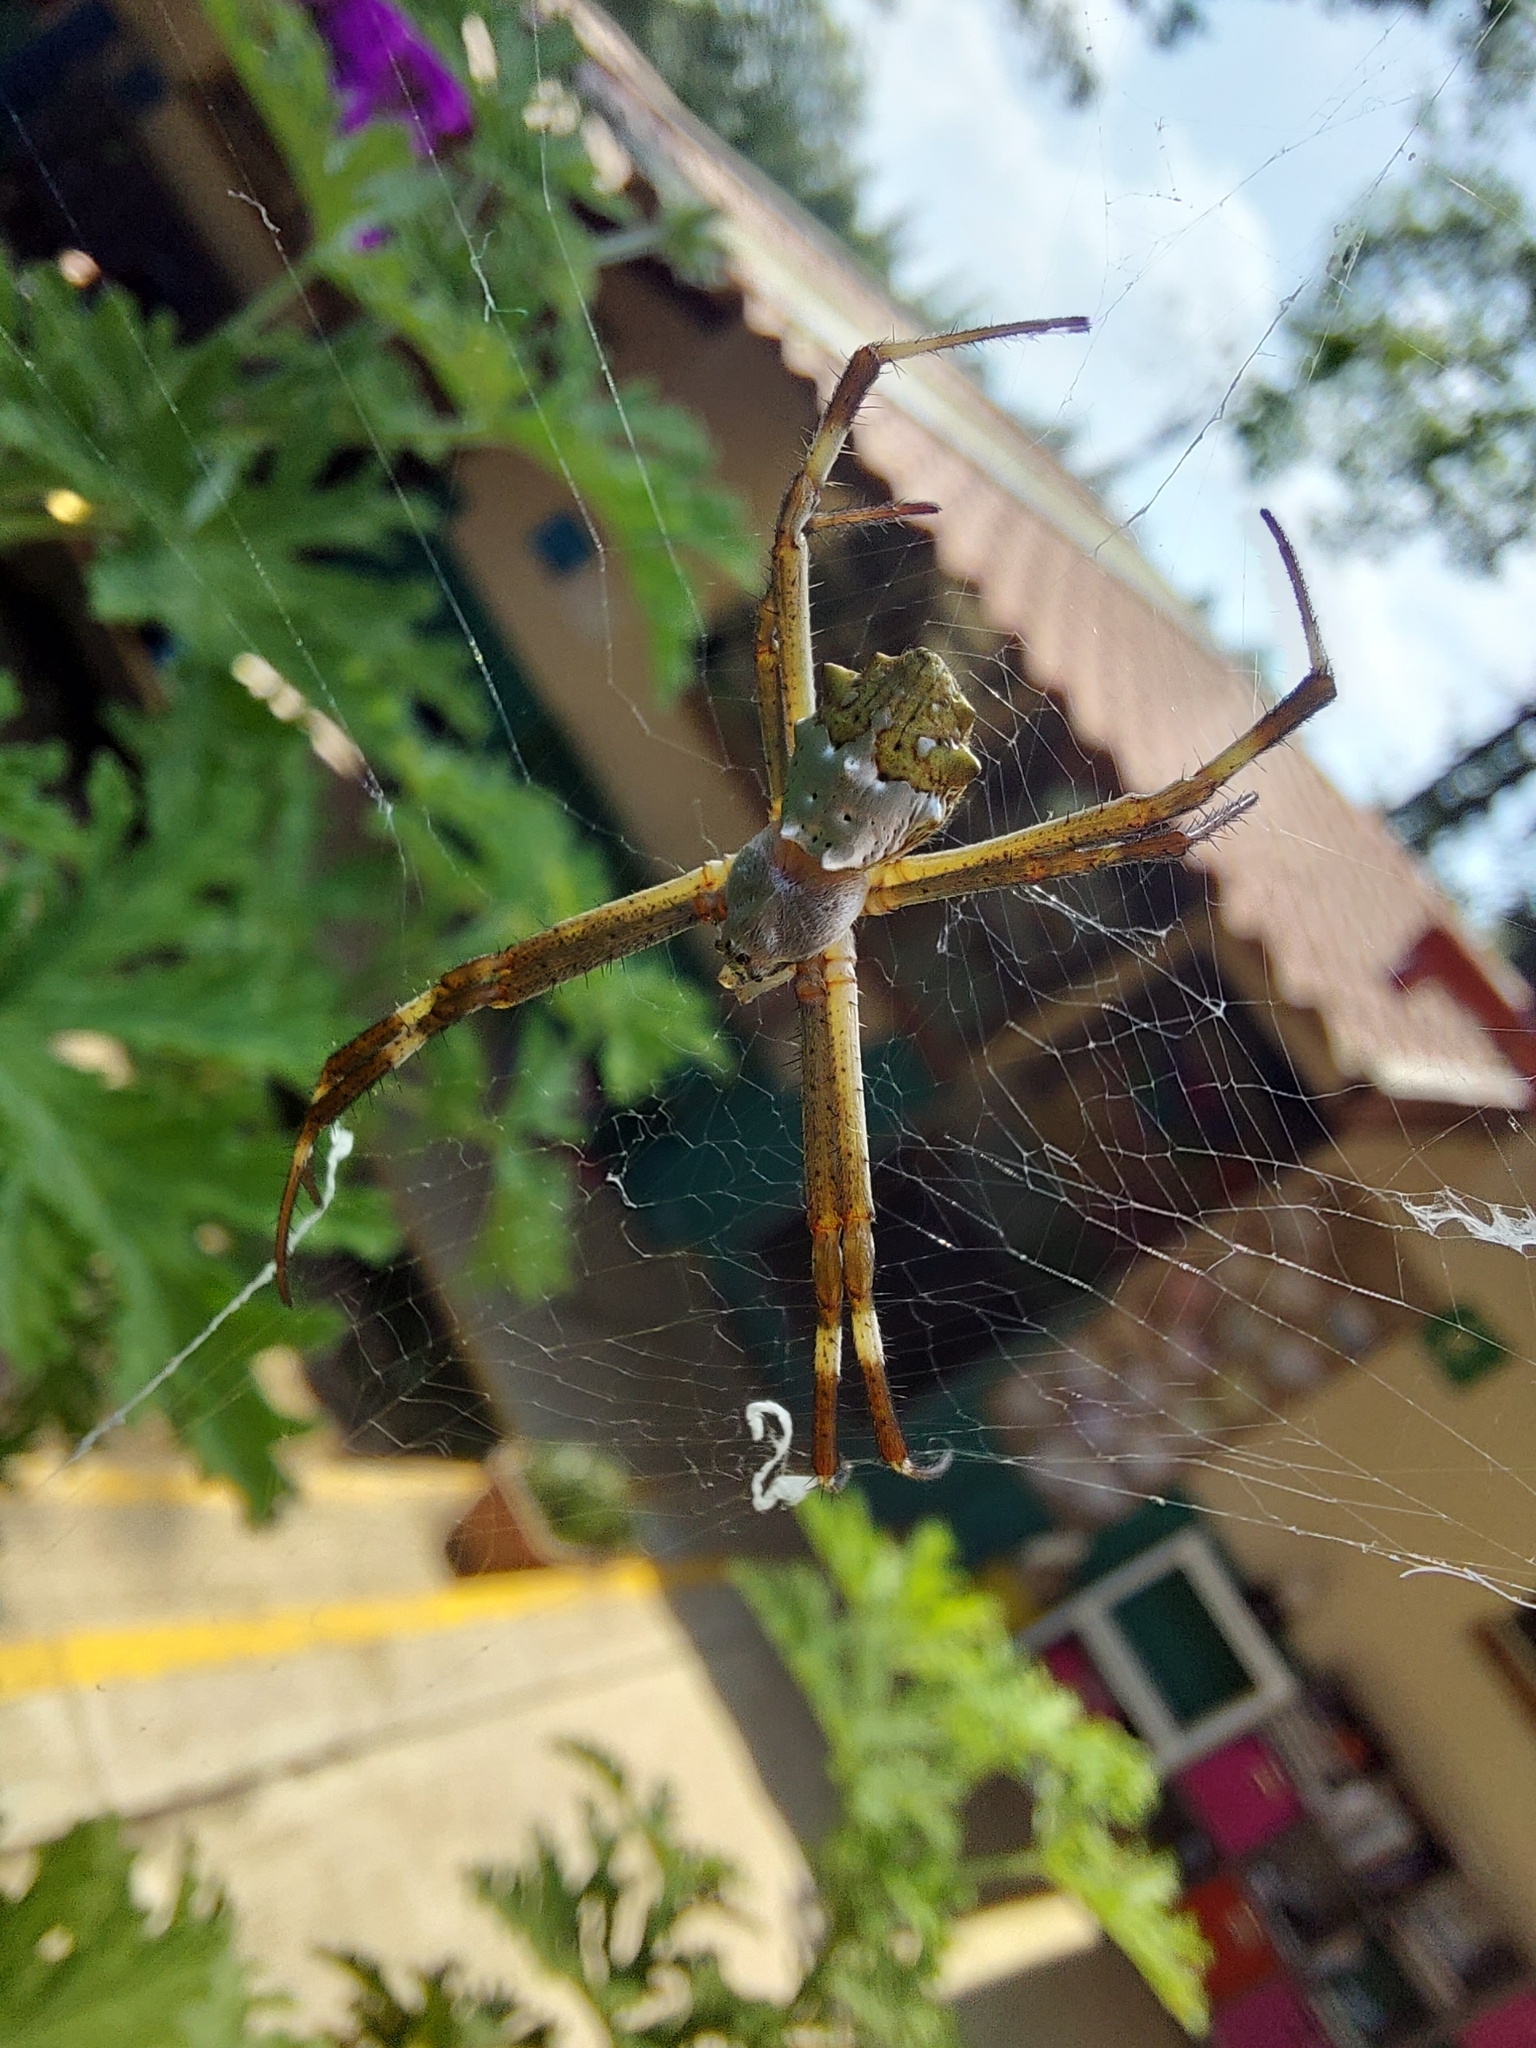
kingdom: Animalia
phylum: Arthropoda
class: Arachnida
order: Araneae
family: Araneidae
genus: Argiope
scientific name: Argiope argentata
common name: Orb weavers
